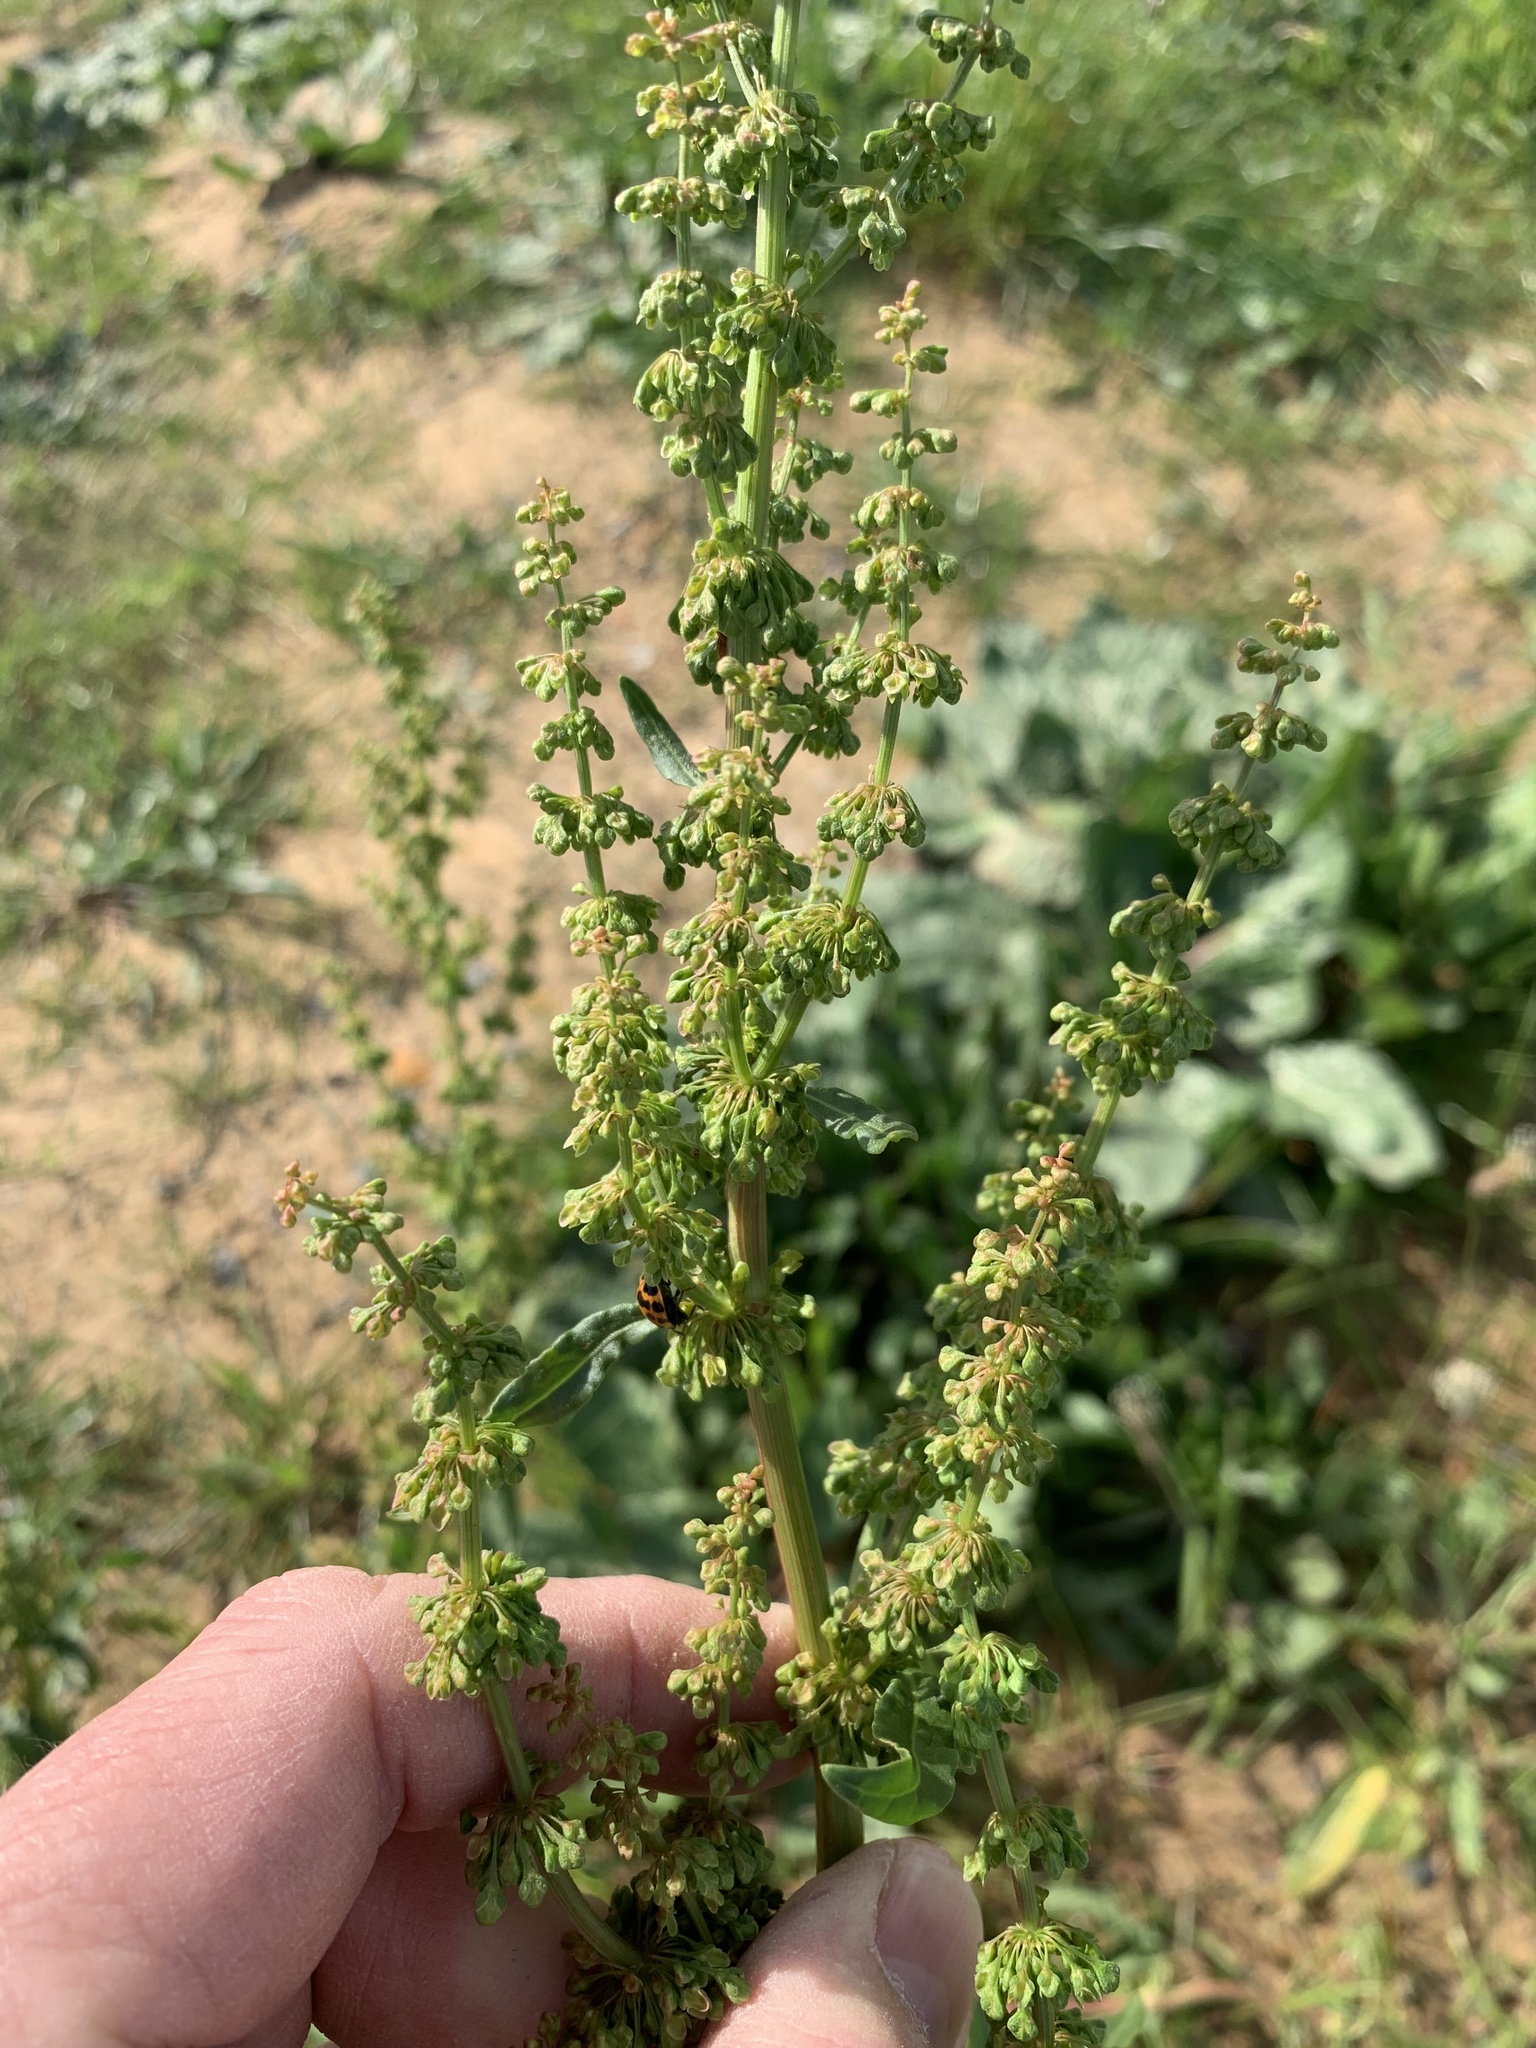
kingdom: Plantae
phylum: Tracheophyta
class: Magnoliopsida
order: Caryophyllales
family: Polygonaceae
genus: Rumex
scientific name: Rumex crispus
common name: Curled dock
